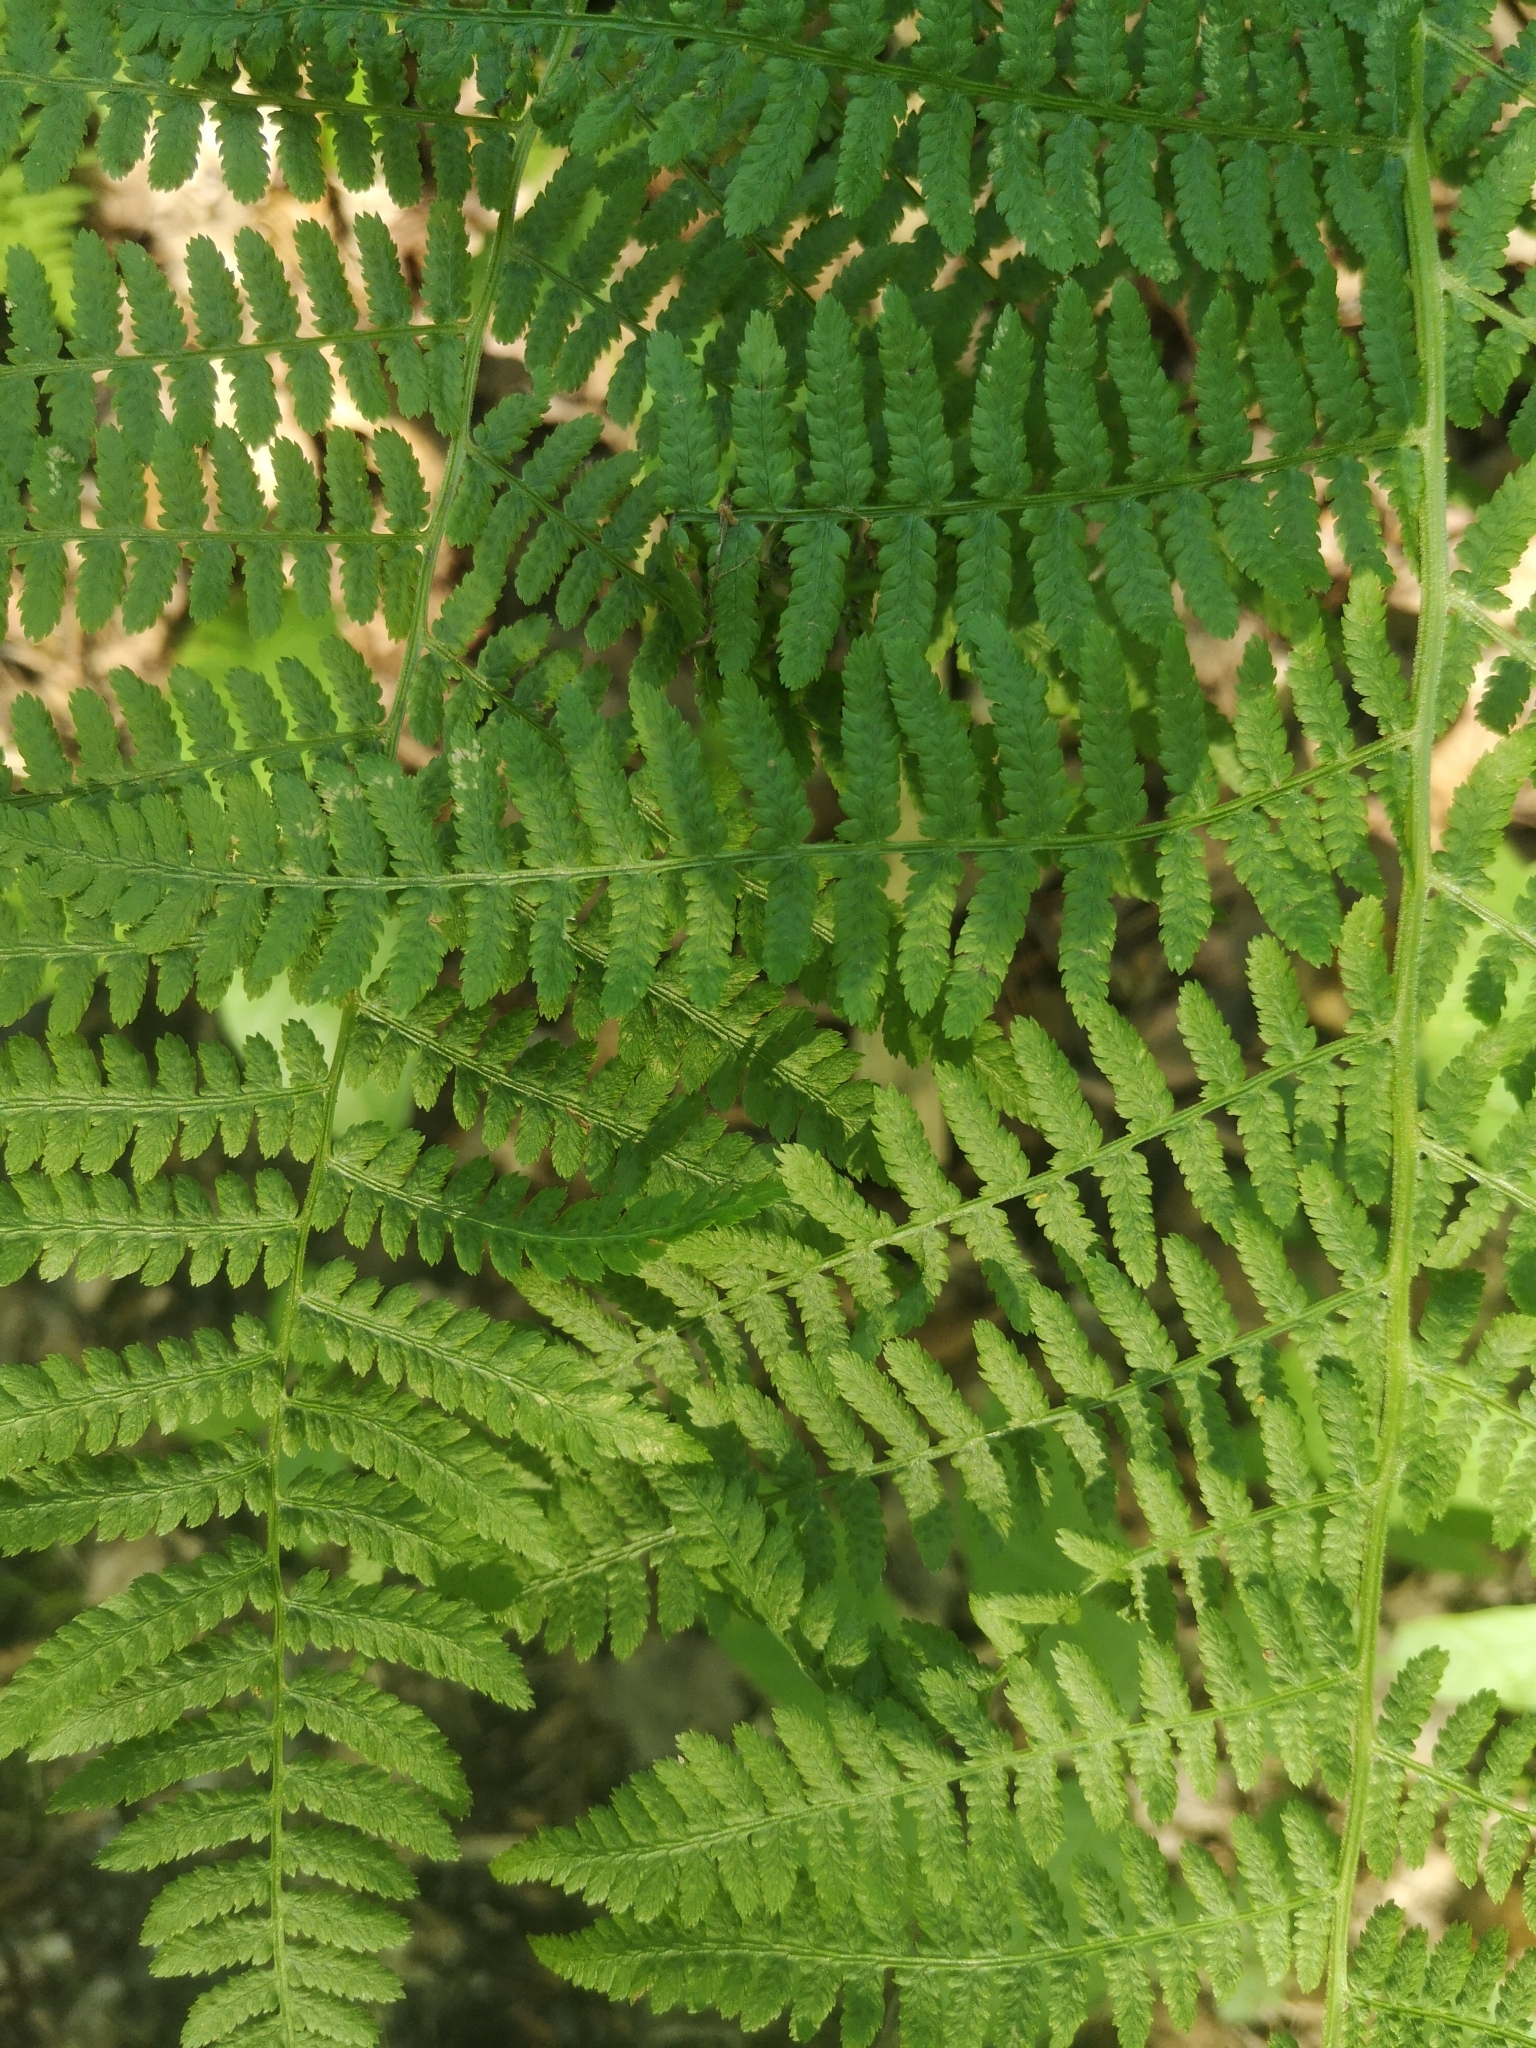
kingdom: Plantae
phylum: Tracheophyta
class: Polypodiopsida
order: Polypodiales
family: Athyriaceae
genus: Athyrium
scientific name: Athyrium angustum
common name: Northern lady fern
